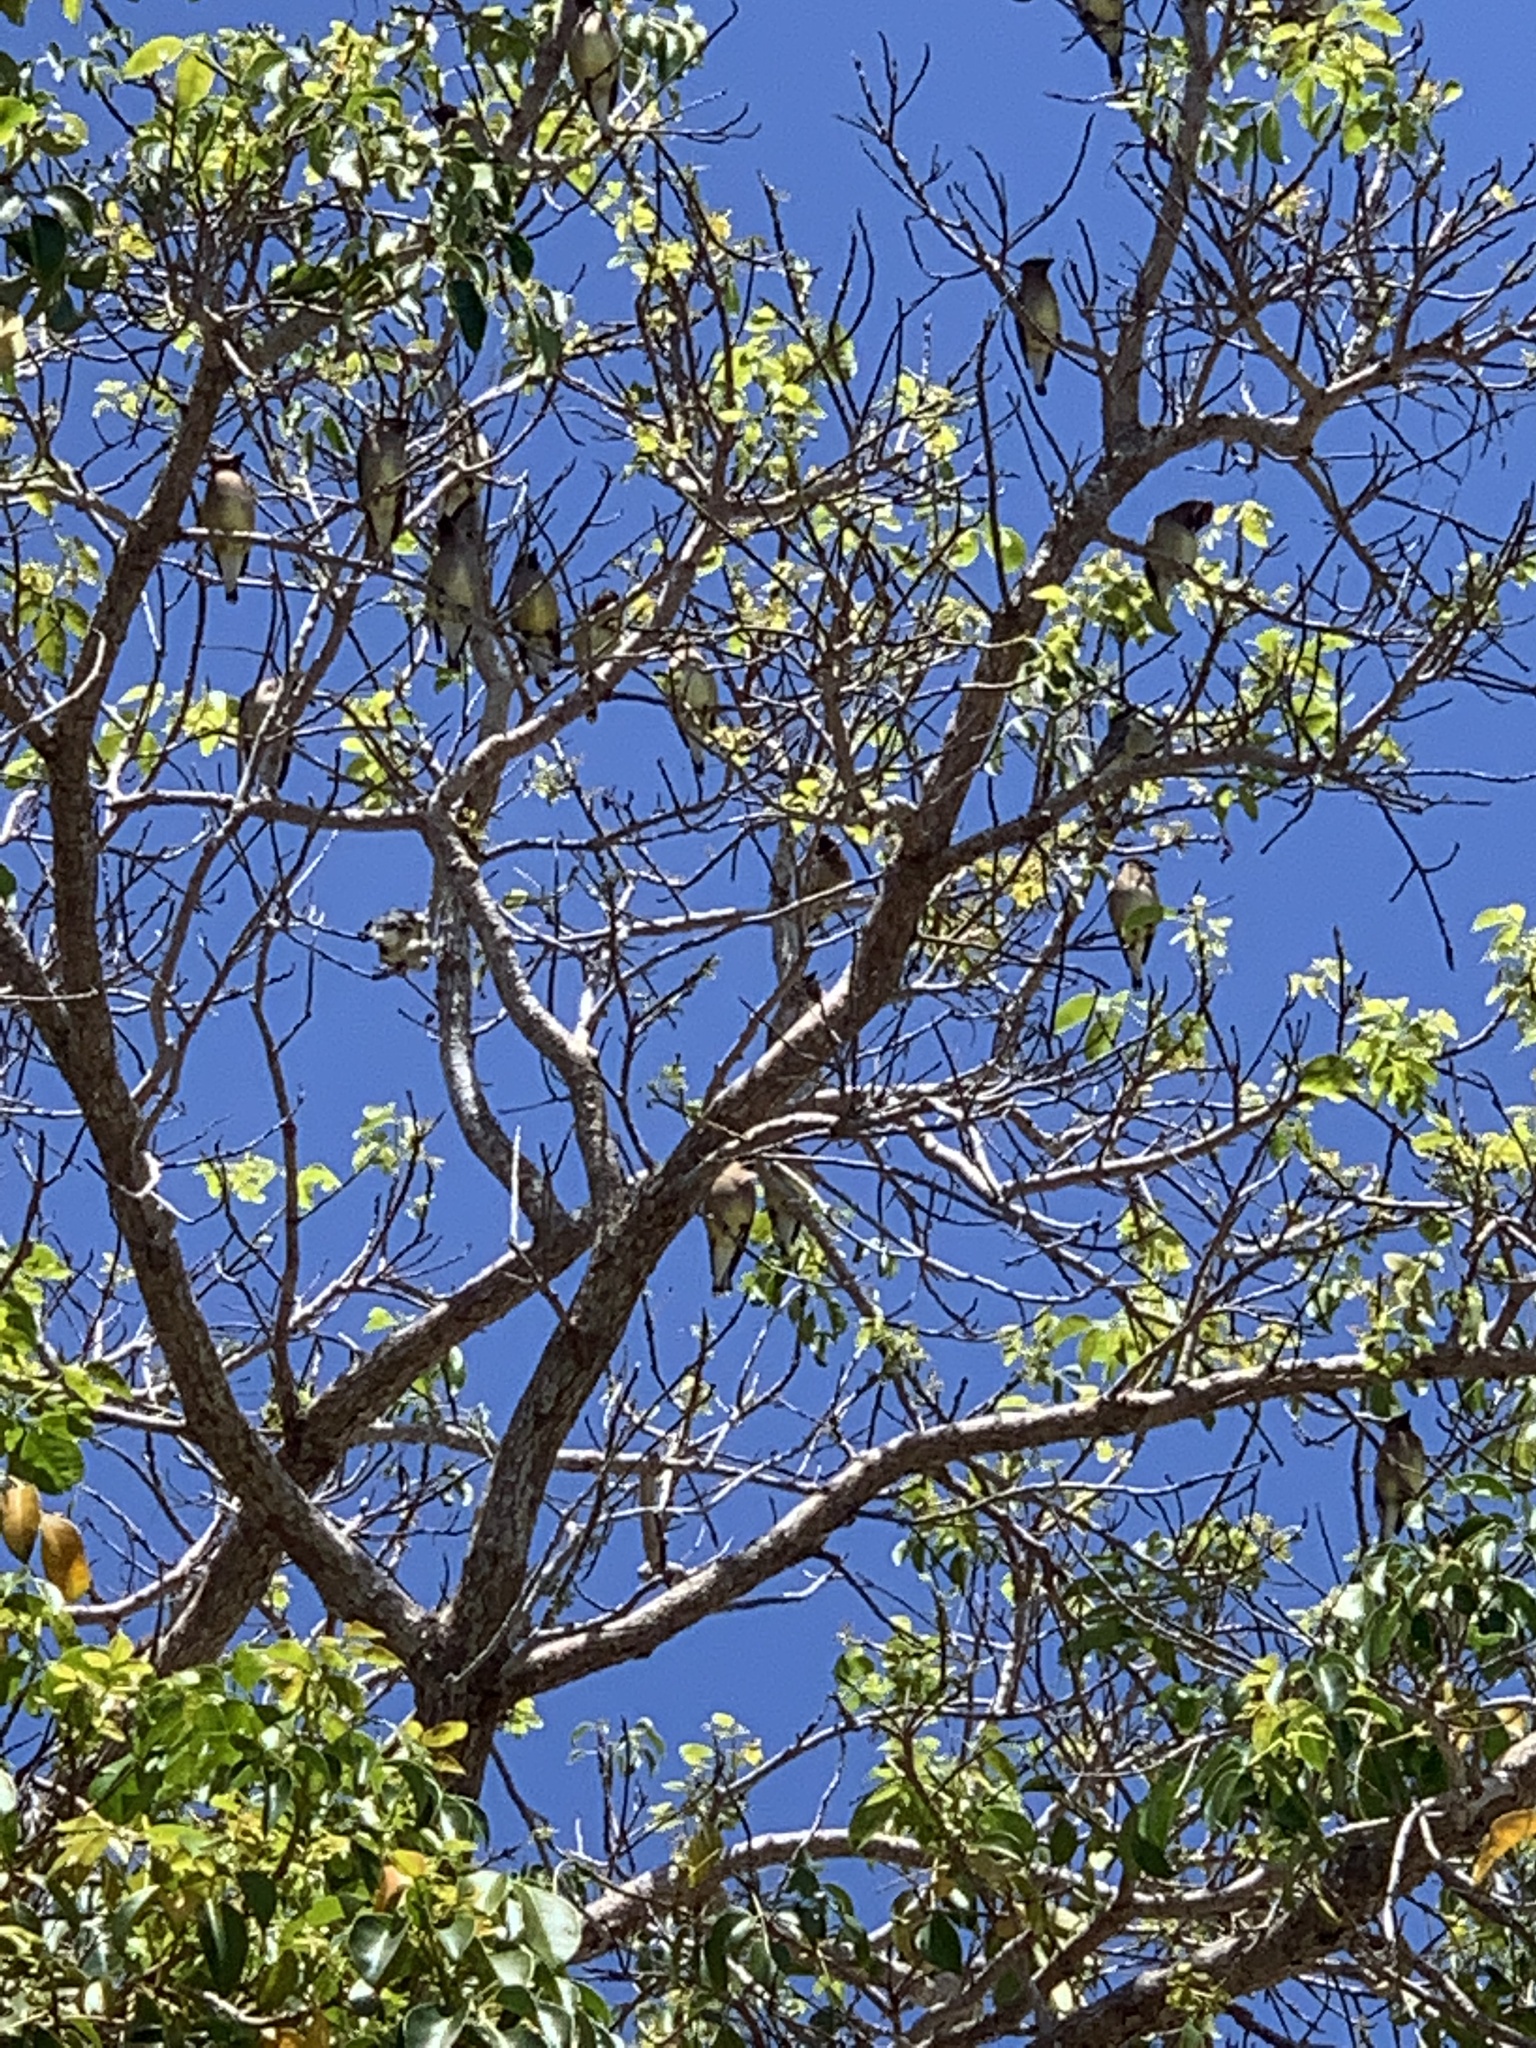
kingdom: Animalia
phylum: Chordata
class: Aves
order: Passeriformes
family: Bombycillidae
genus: Bombycilla
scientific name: Bombycilla cedrorum
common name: Cedar waxwing
